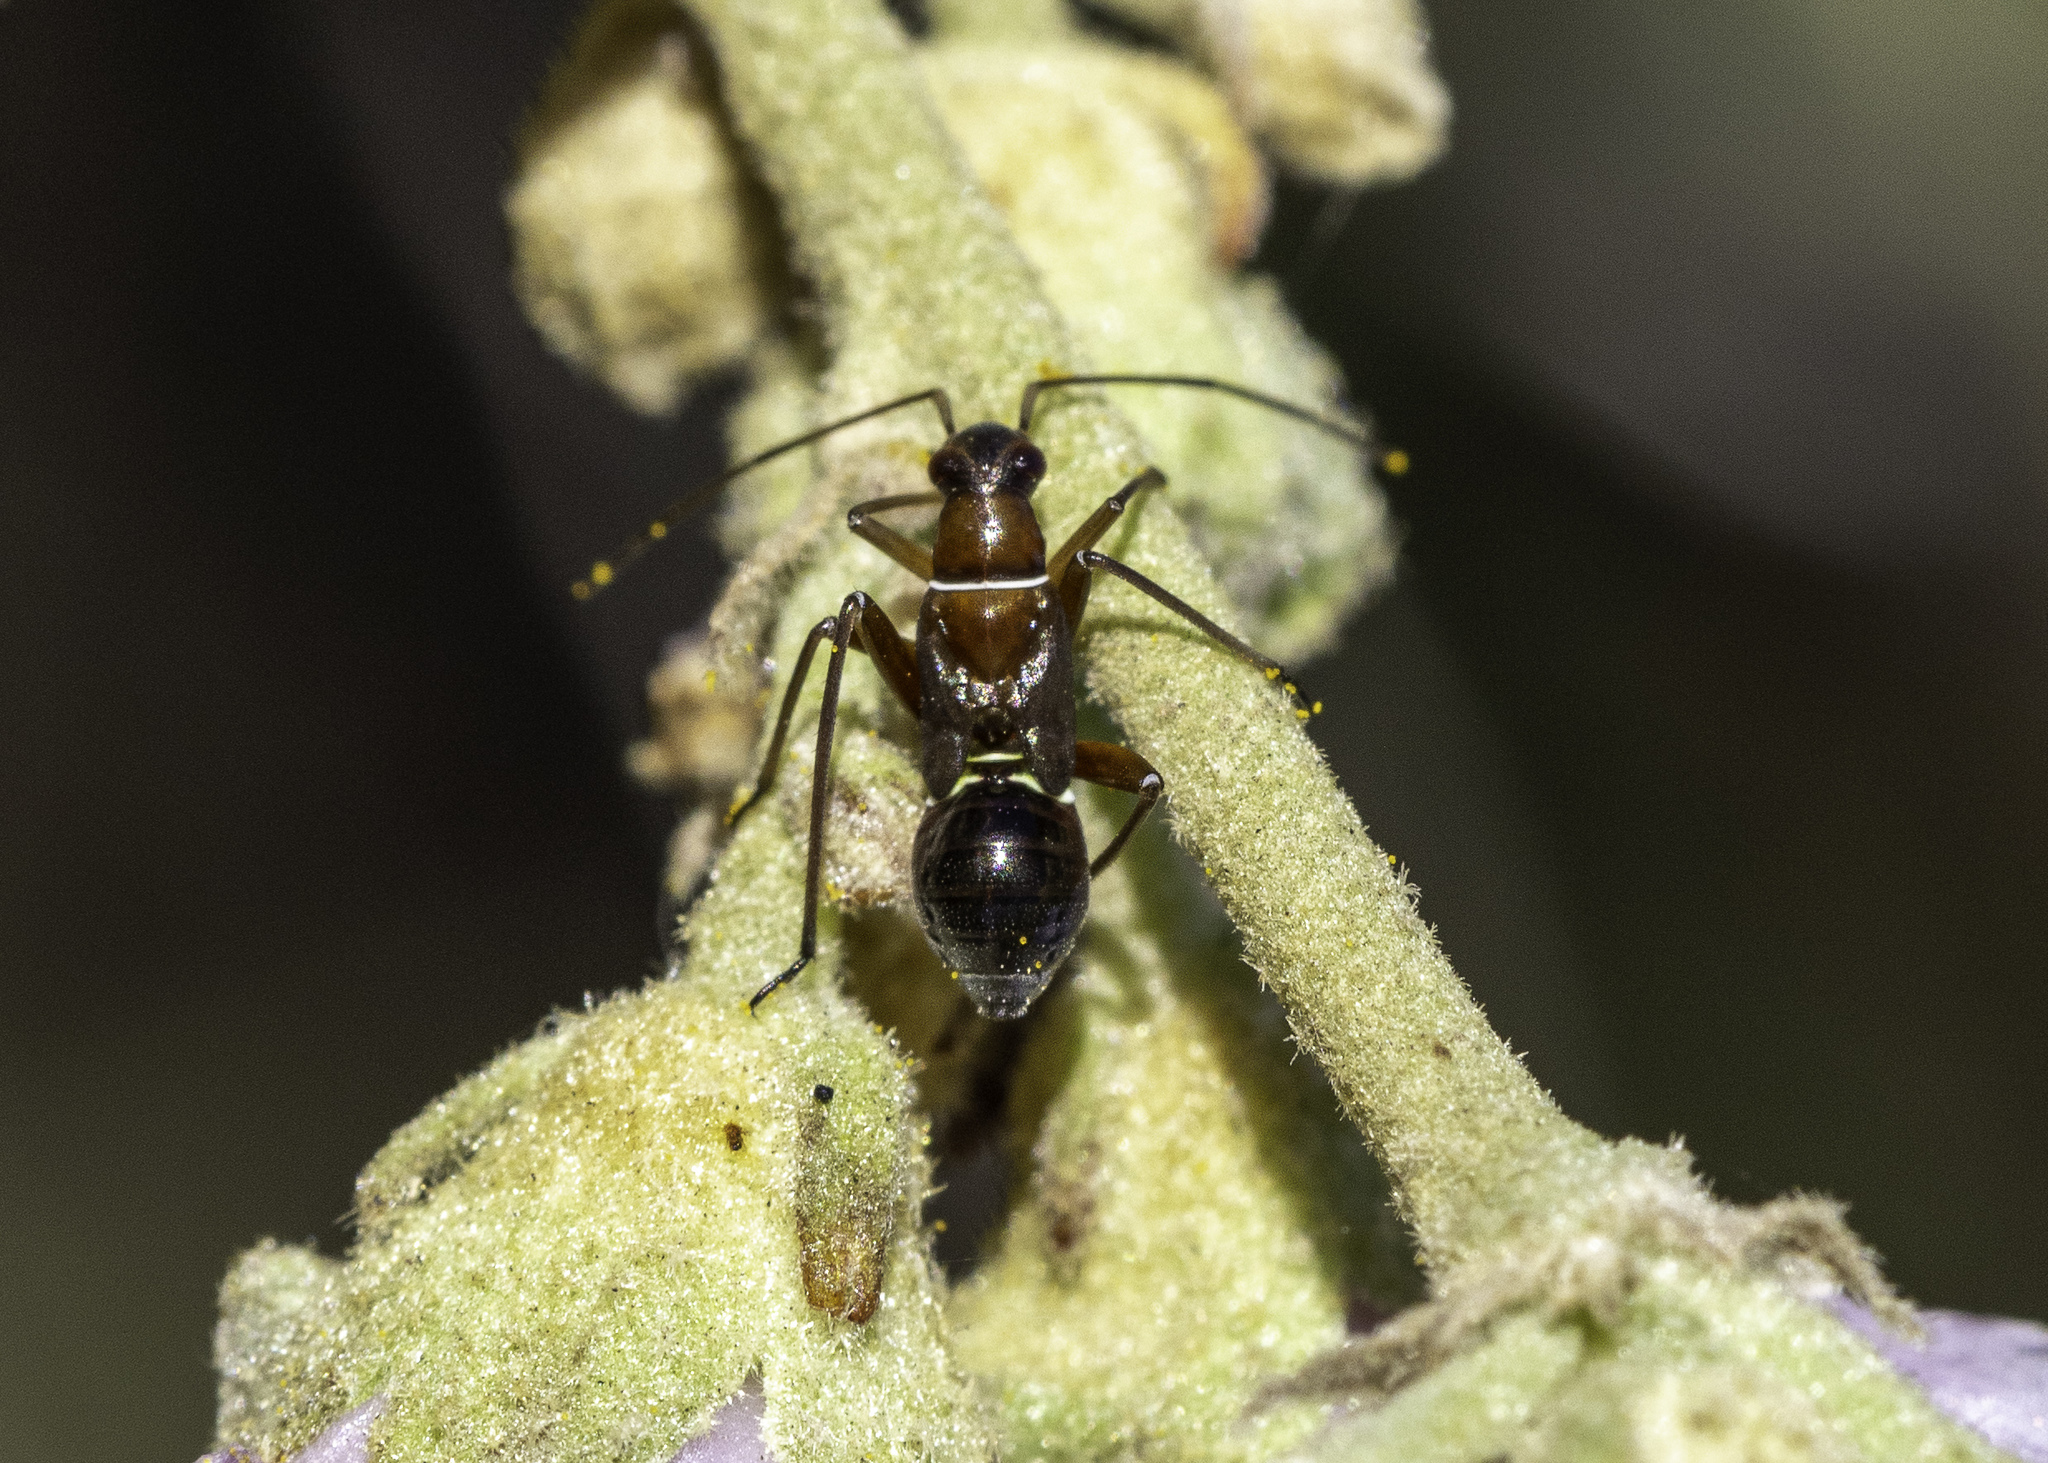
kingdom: Animalia
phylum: Arthropoda
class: Insecta
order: Hemiptera
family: Miridae
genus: Closterocoris
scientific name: Closterocoris amoenus
